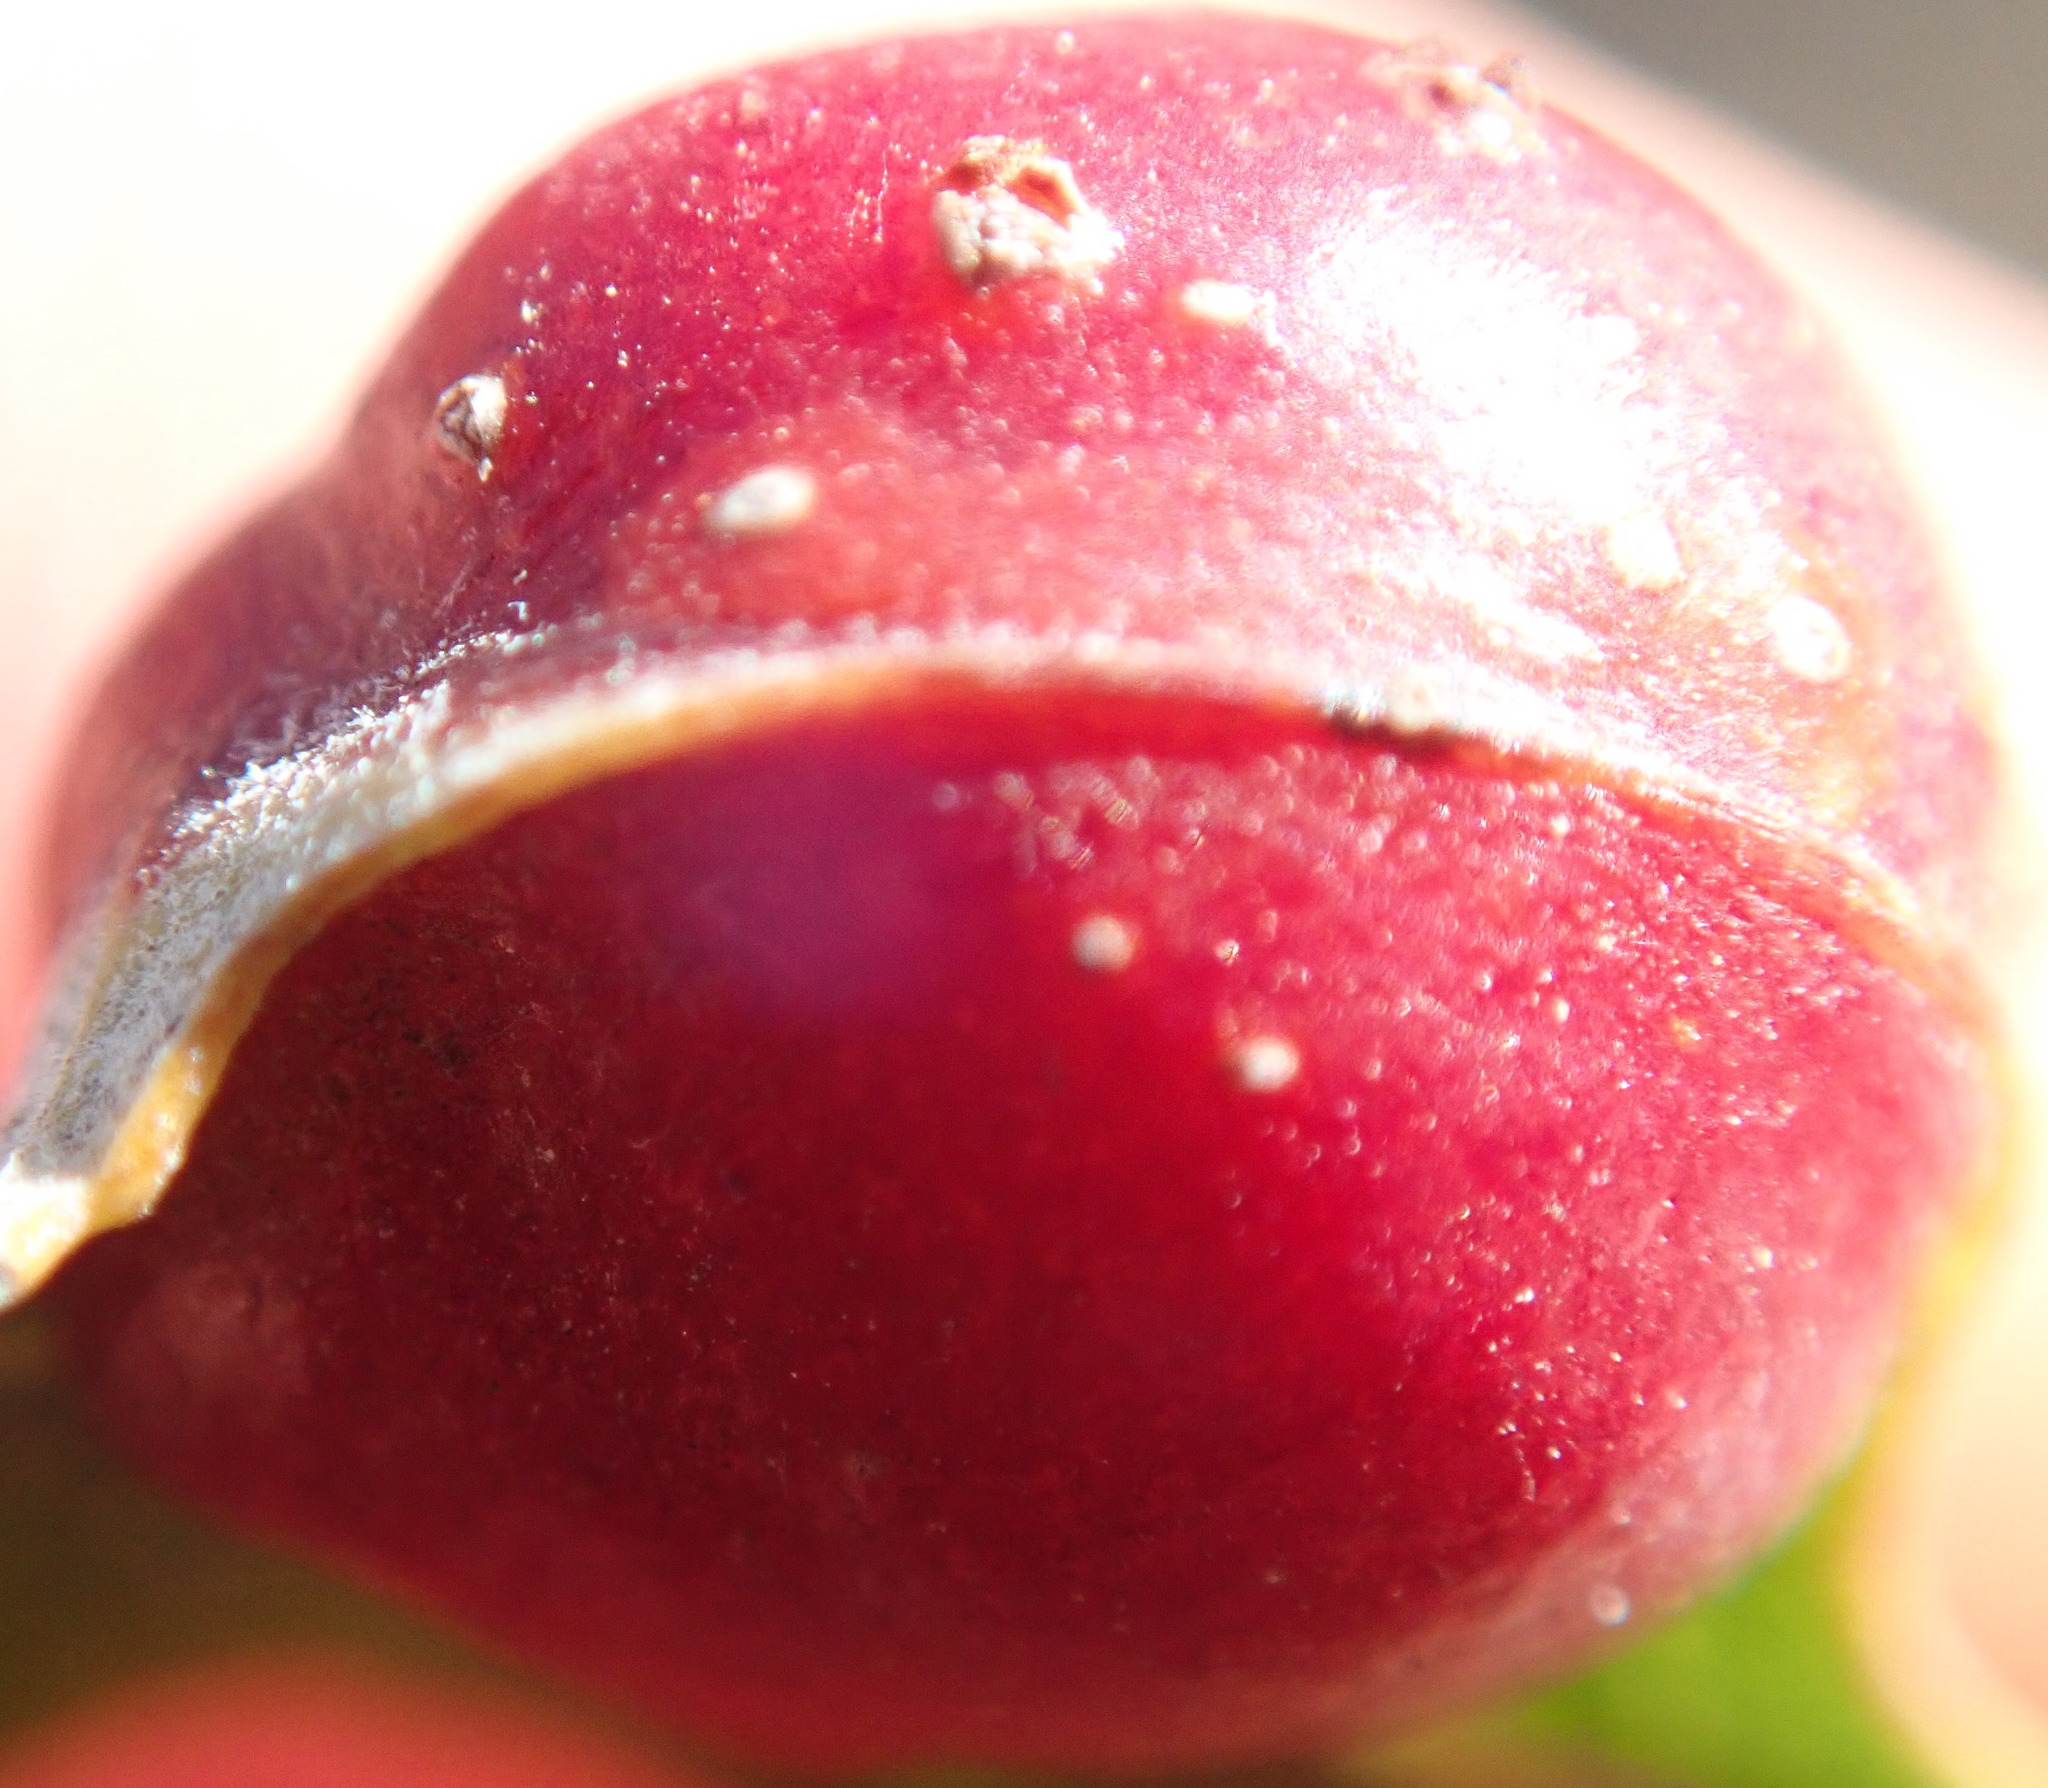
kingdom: Animalia
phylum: Arthropoda
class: Insecta
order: Hymenoptera
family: Tenthredinidae
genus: Euura
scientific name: Euura
